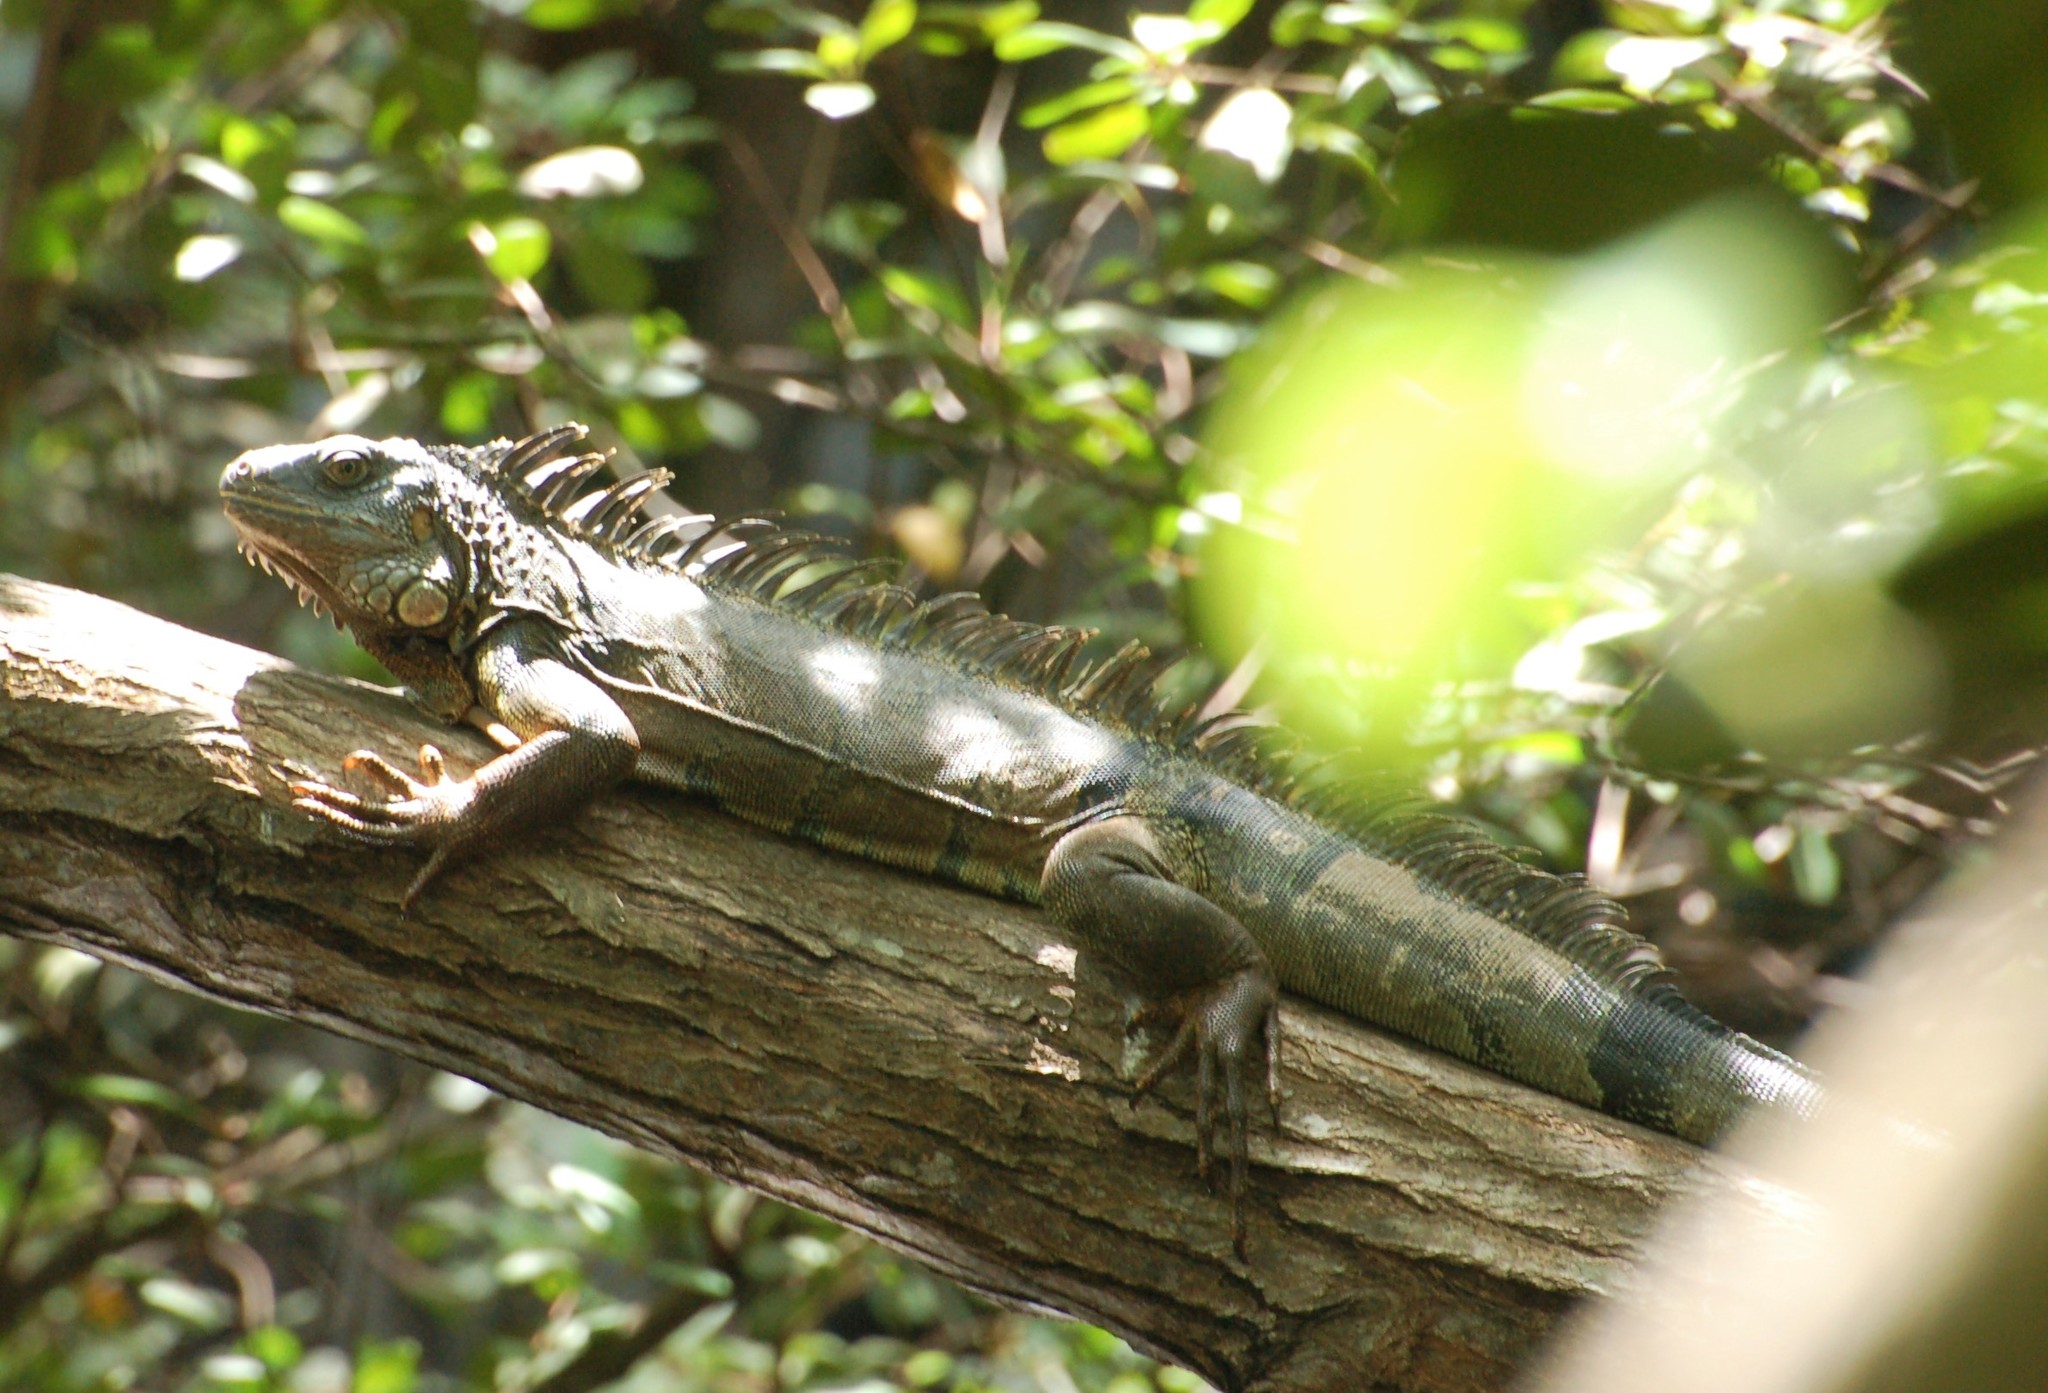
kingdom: Animalia
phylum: Chordata
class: Squamata
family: Iguanidae
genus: Iguana
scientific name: Iguana iguana
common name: Green iguana
